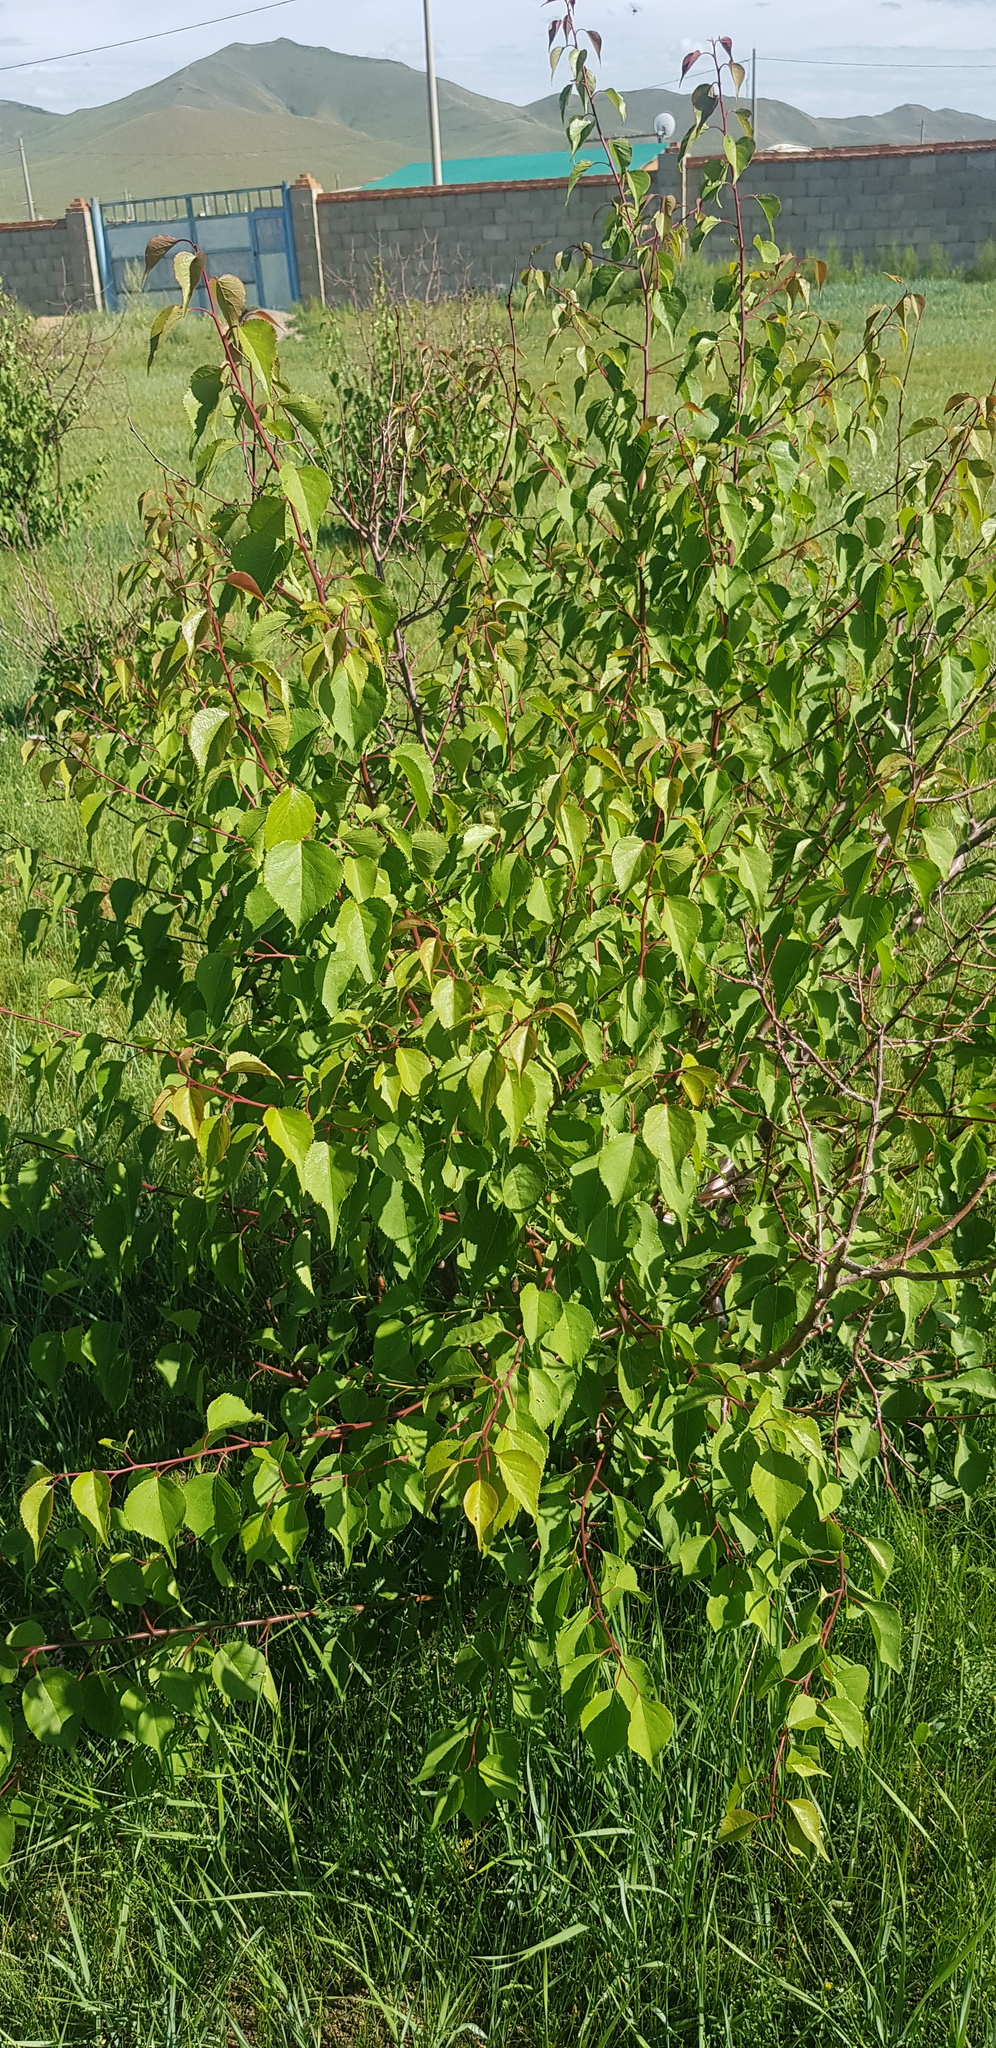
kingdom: Plantae
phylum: Tracheophyta
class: Magnoliopsida
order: Rosales
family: Rosaceae
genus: Prunus
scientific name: Prunus sibirica
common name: Siberian apricot
